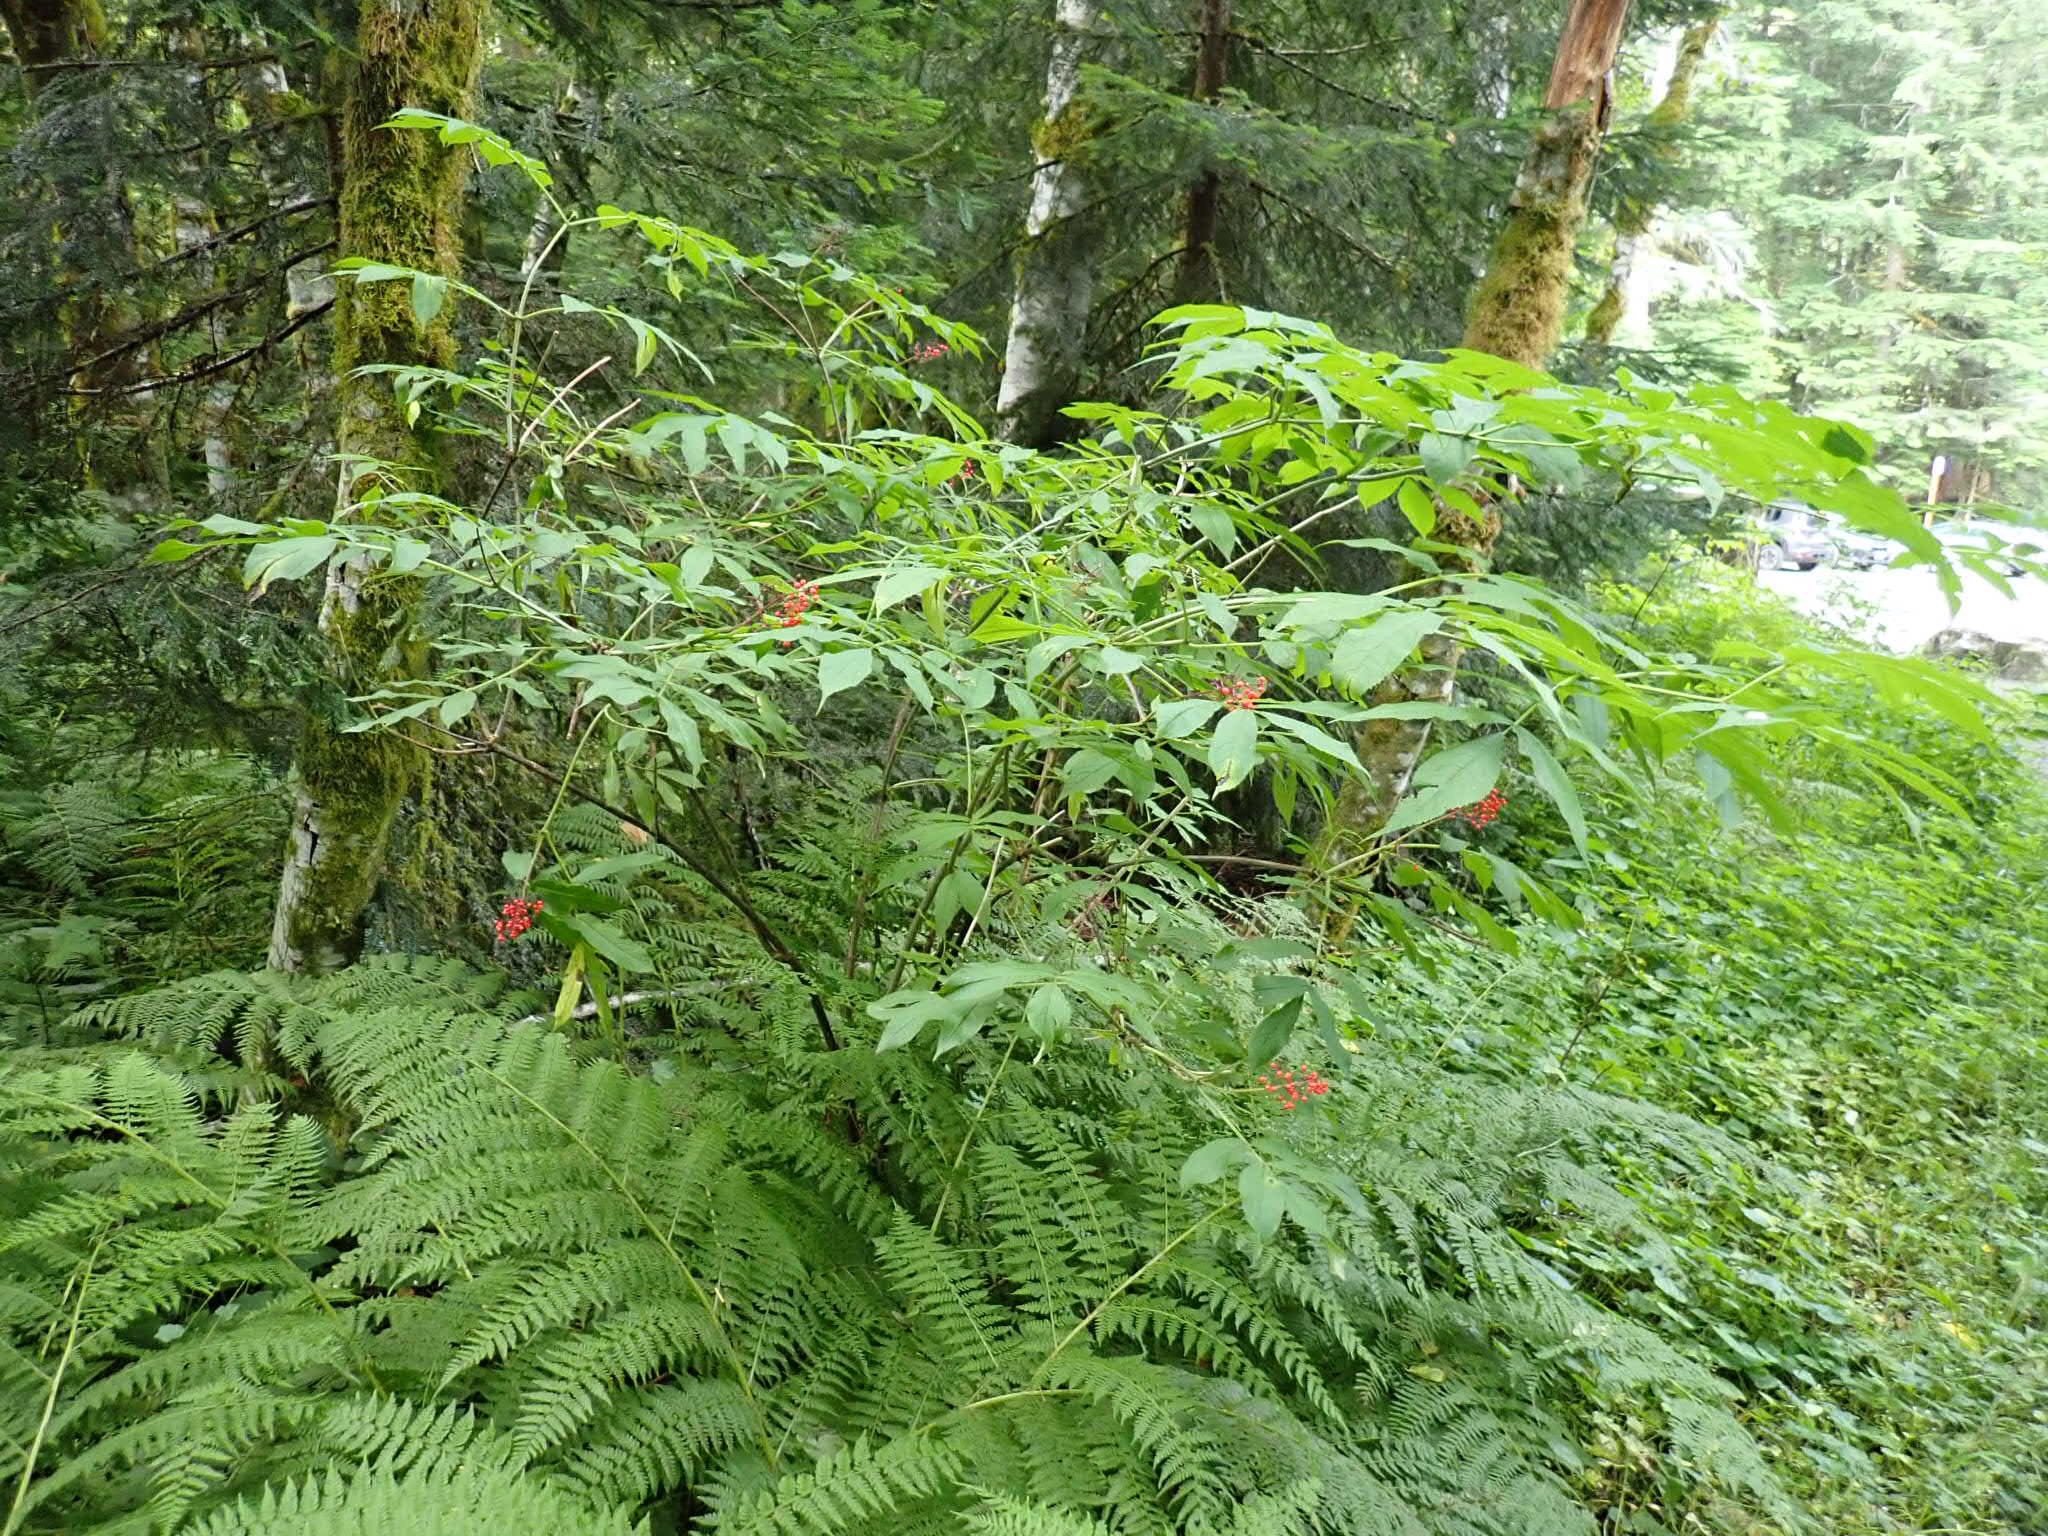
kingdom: Plantae
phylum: Tracheophyta
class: Magnoliopsida
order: Dipsacales
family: Viburnaceae
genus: Sambucus
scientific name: Sambucus racemosa
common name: Red-berried elder
